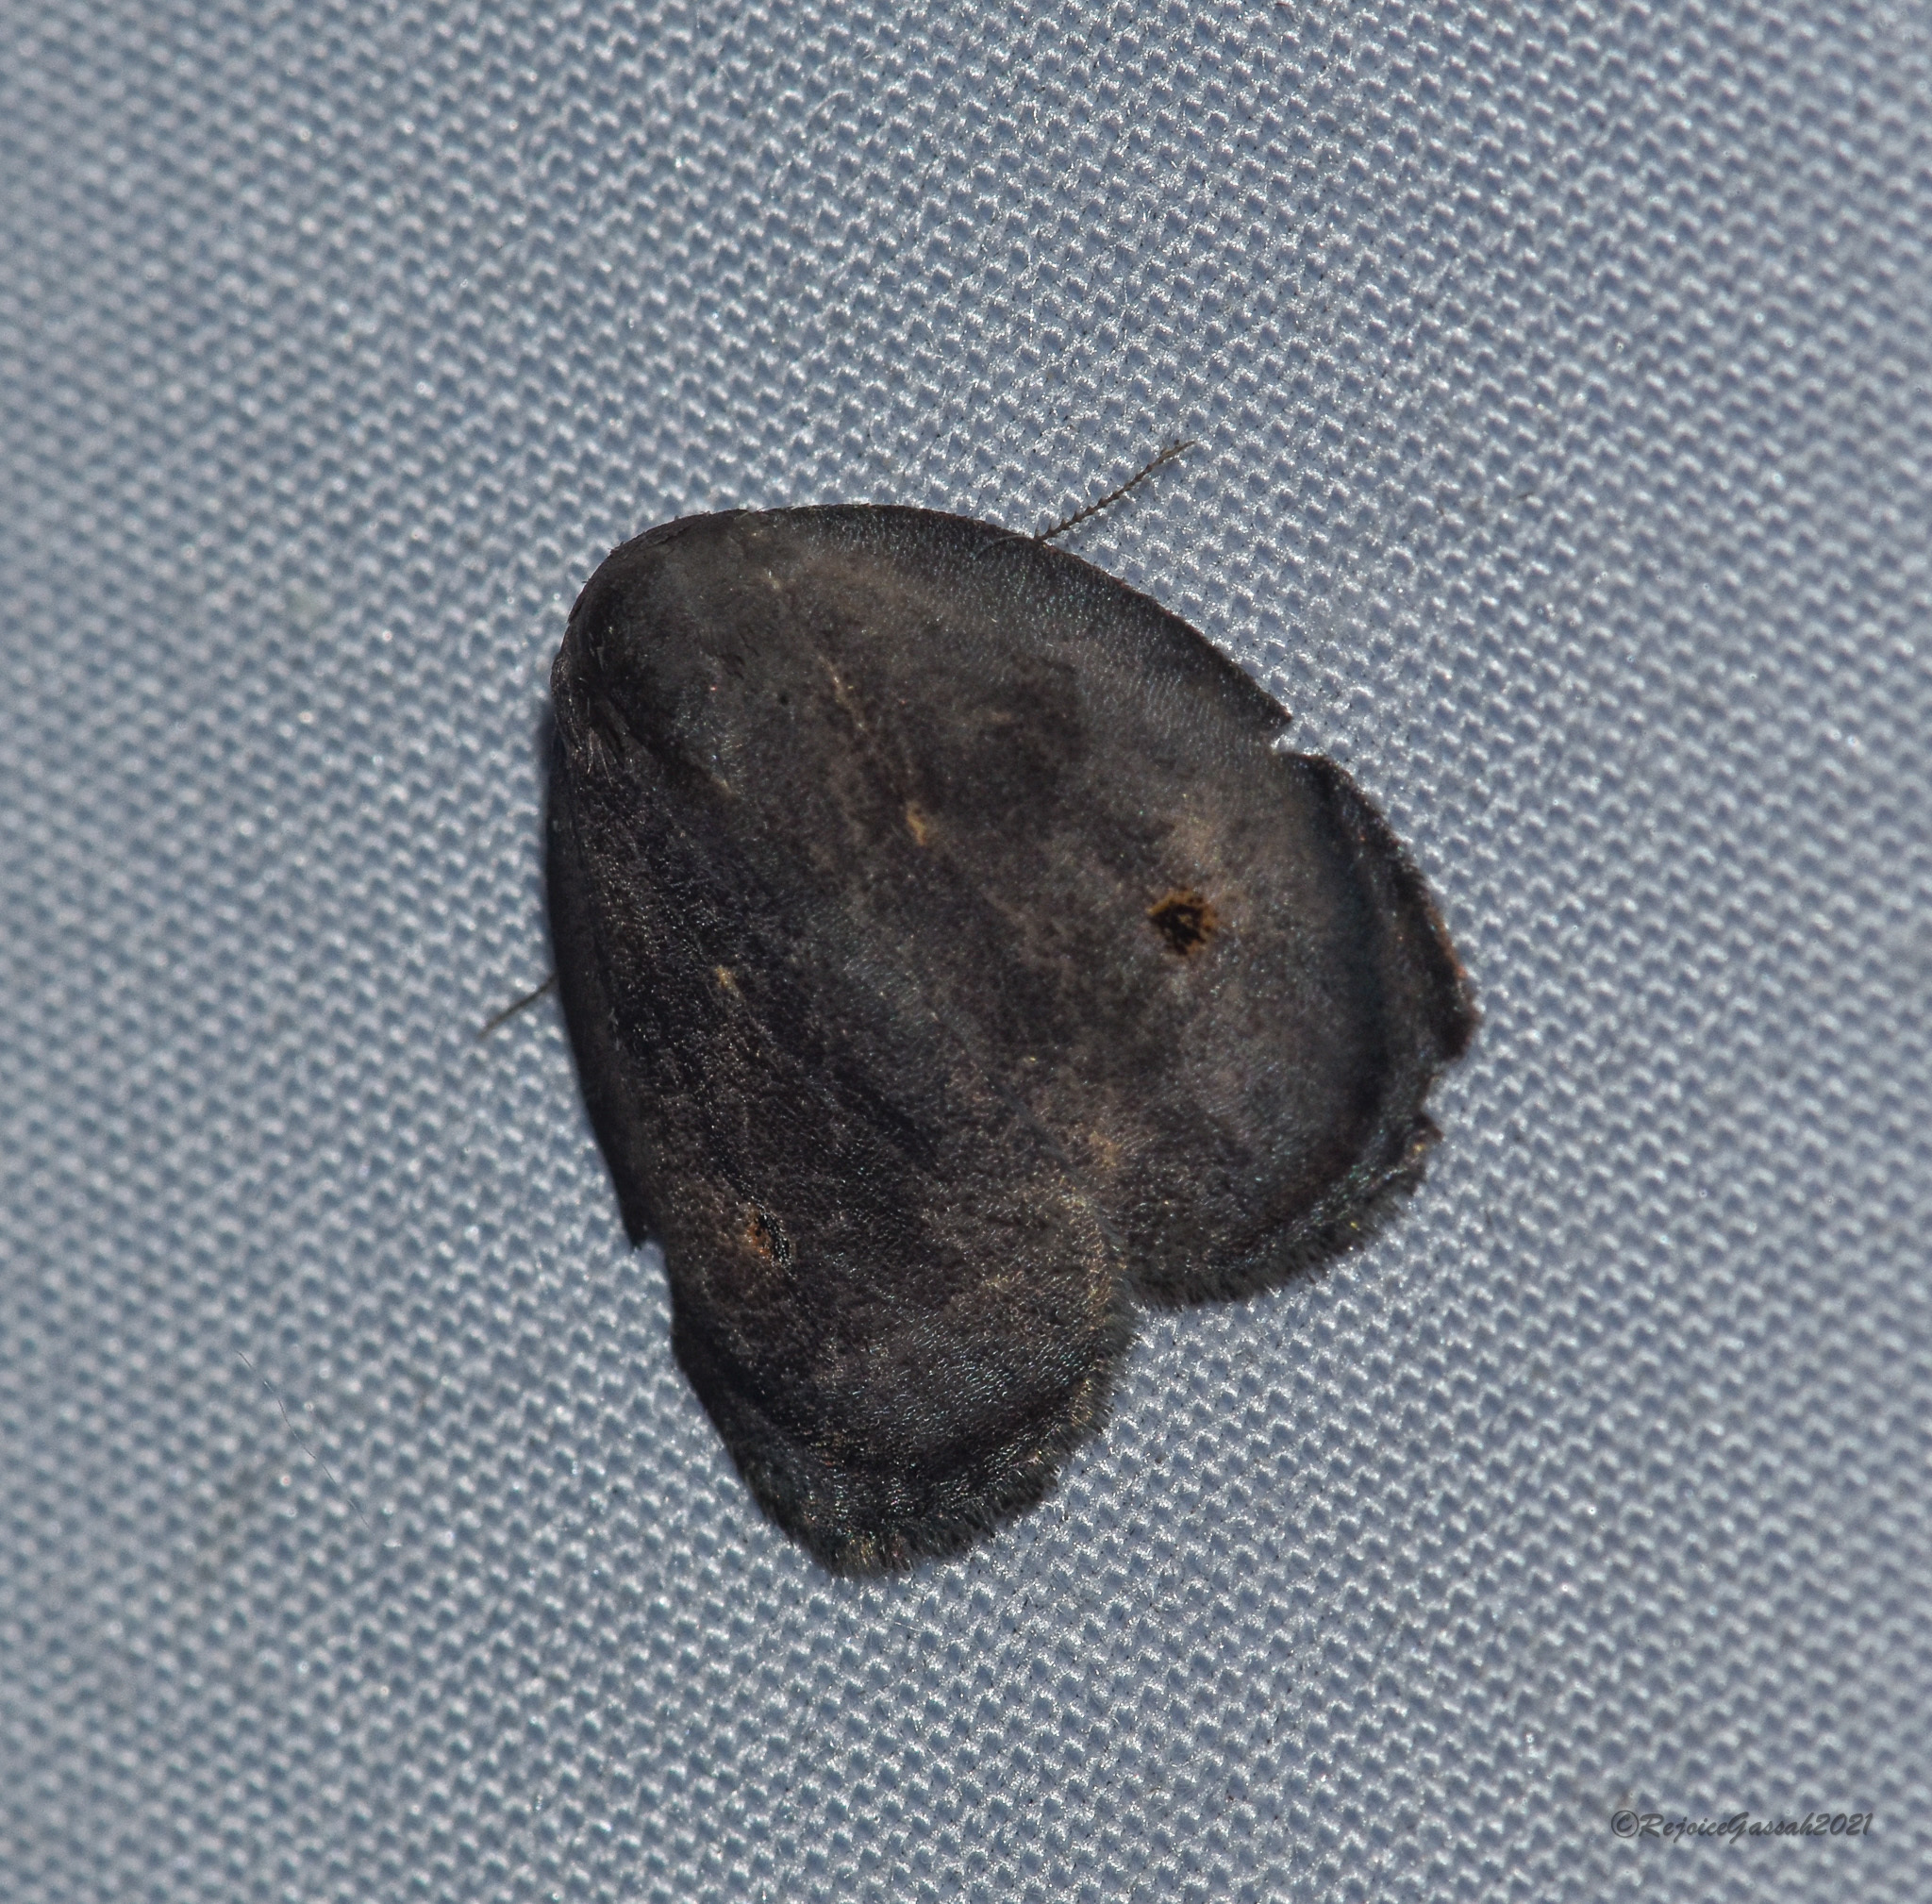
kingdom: Animalia
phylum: Arthropoda
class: Insecta
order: Lepidoptera
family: Erebidae
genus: Hemonia
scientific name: Hemonia orbiferana
